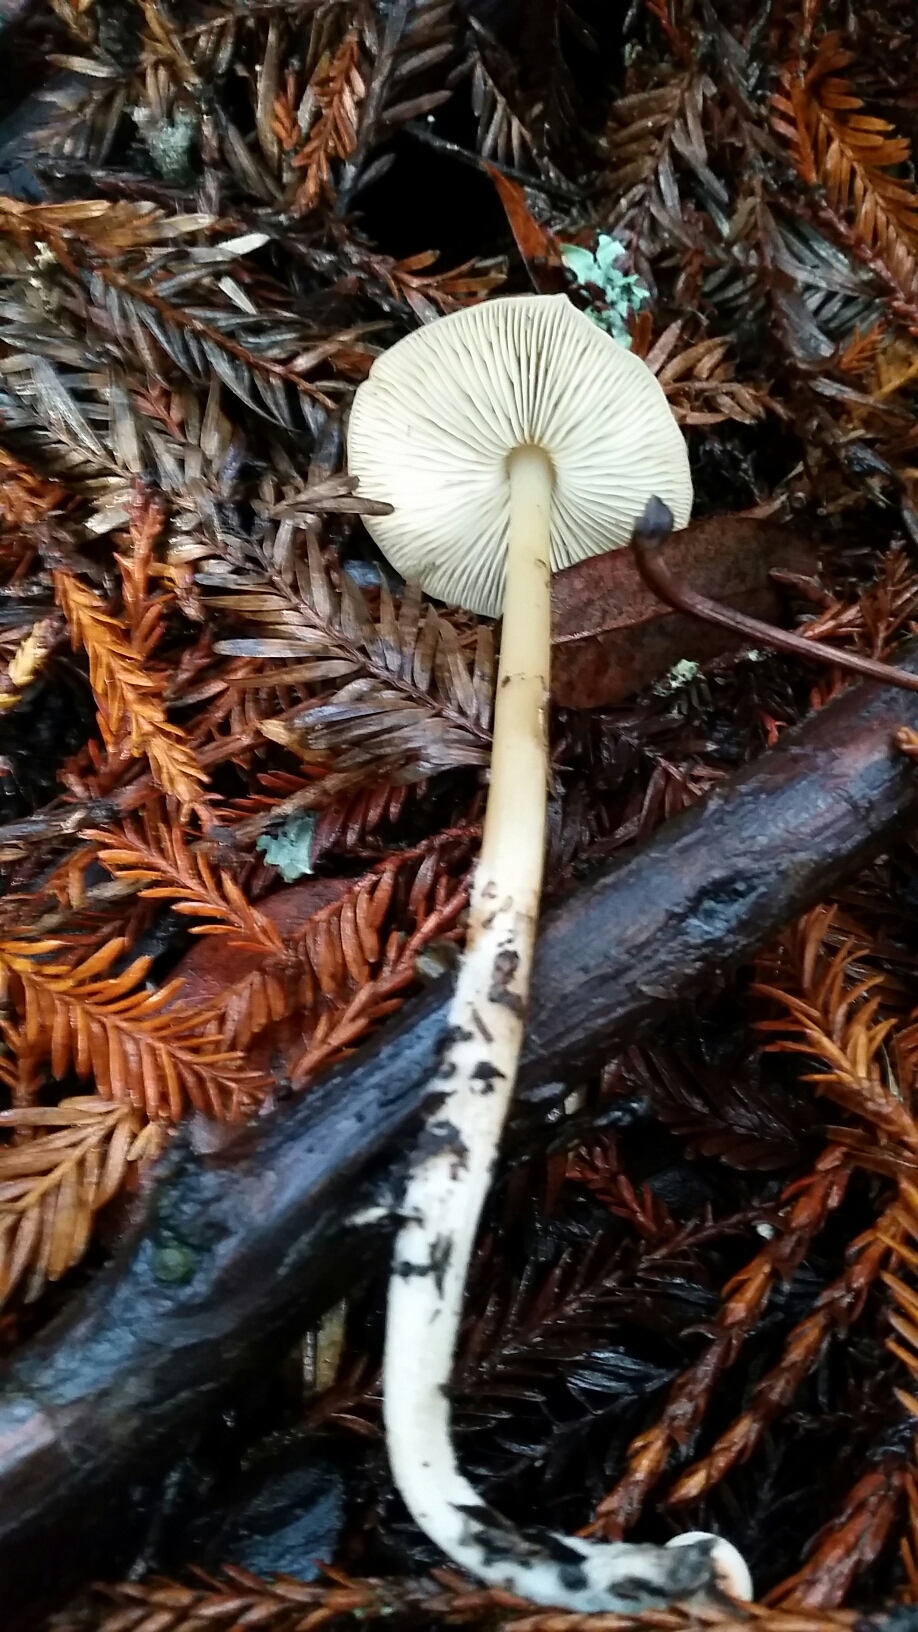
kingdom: Fungi
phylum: Basidiomycota
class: Agaricomycetes
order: Agaricales
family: Tricholomataceae
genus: Caulorhiza
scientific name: Caulorhiza umbonata
